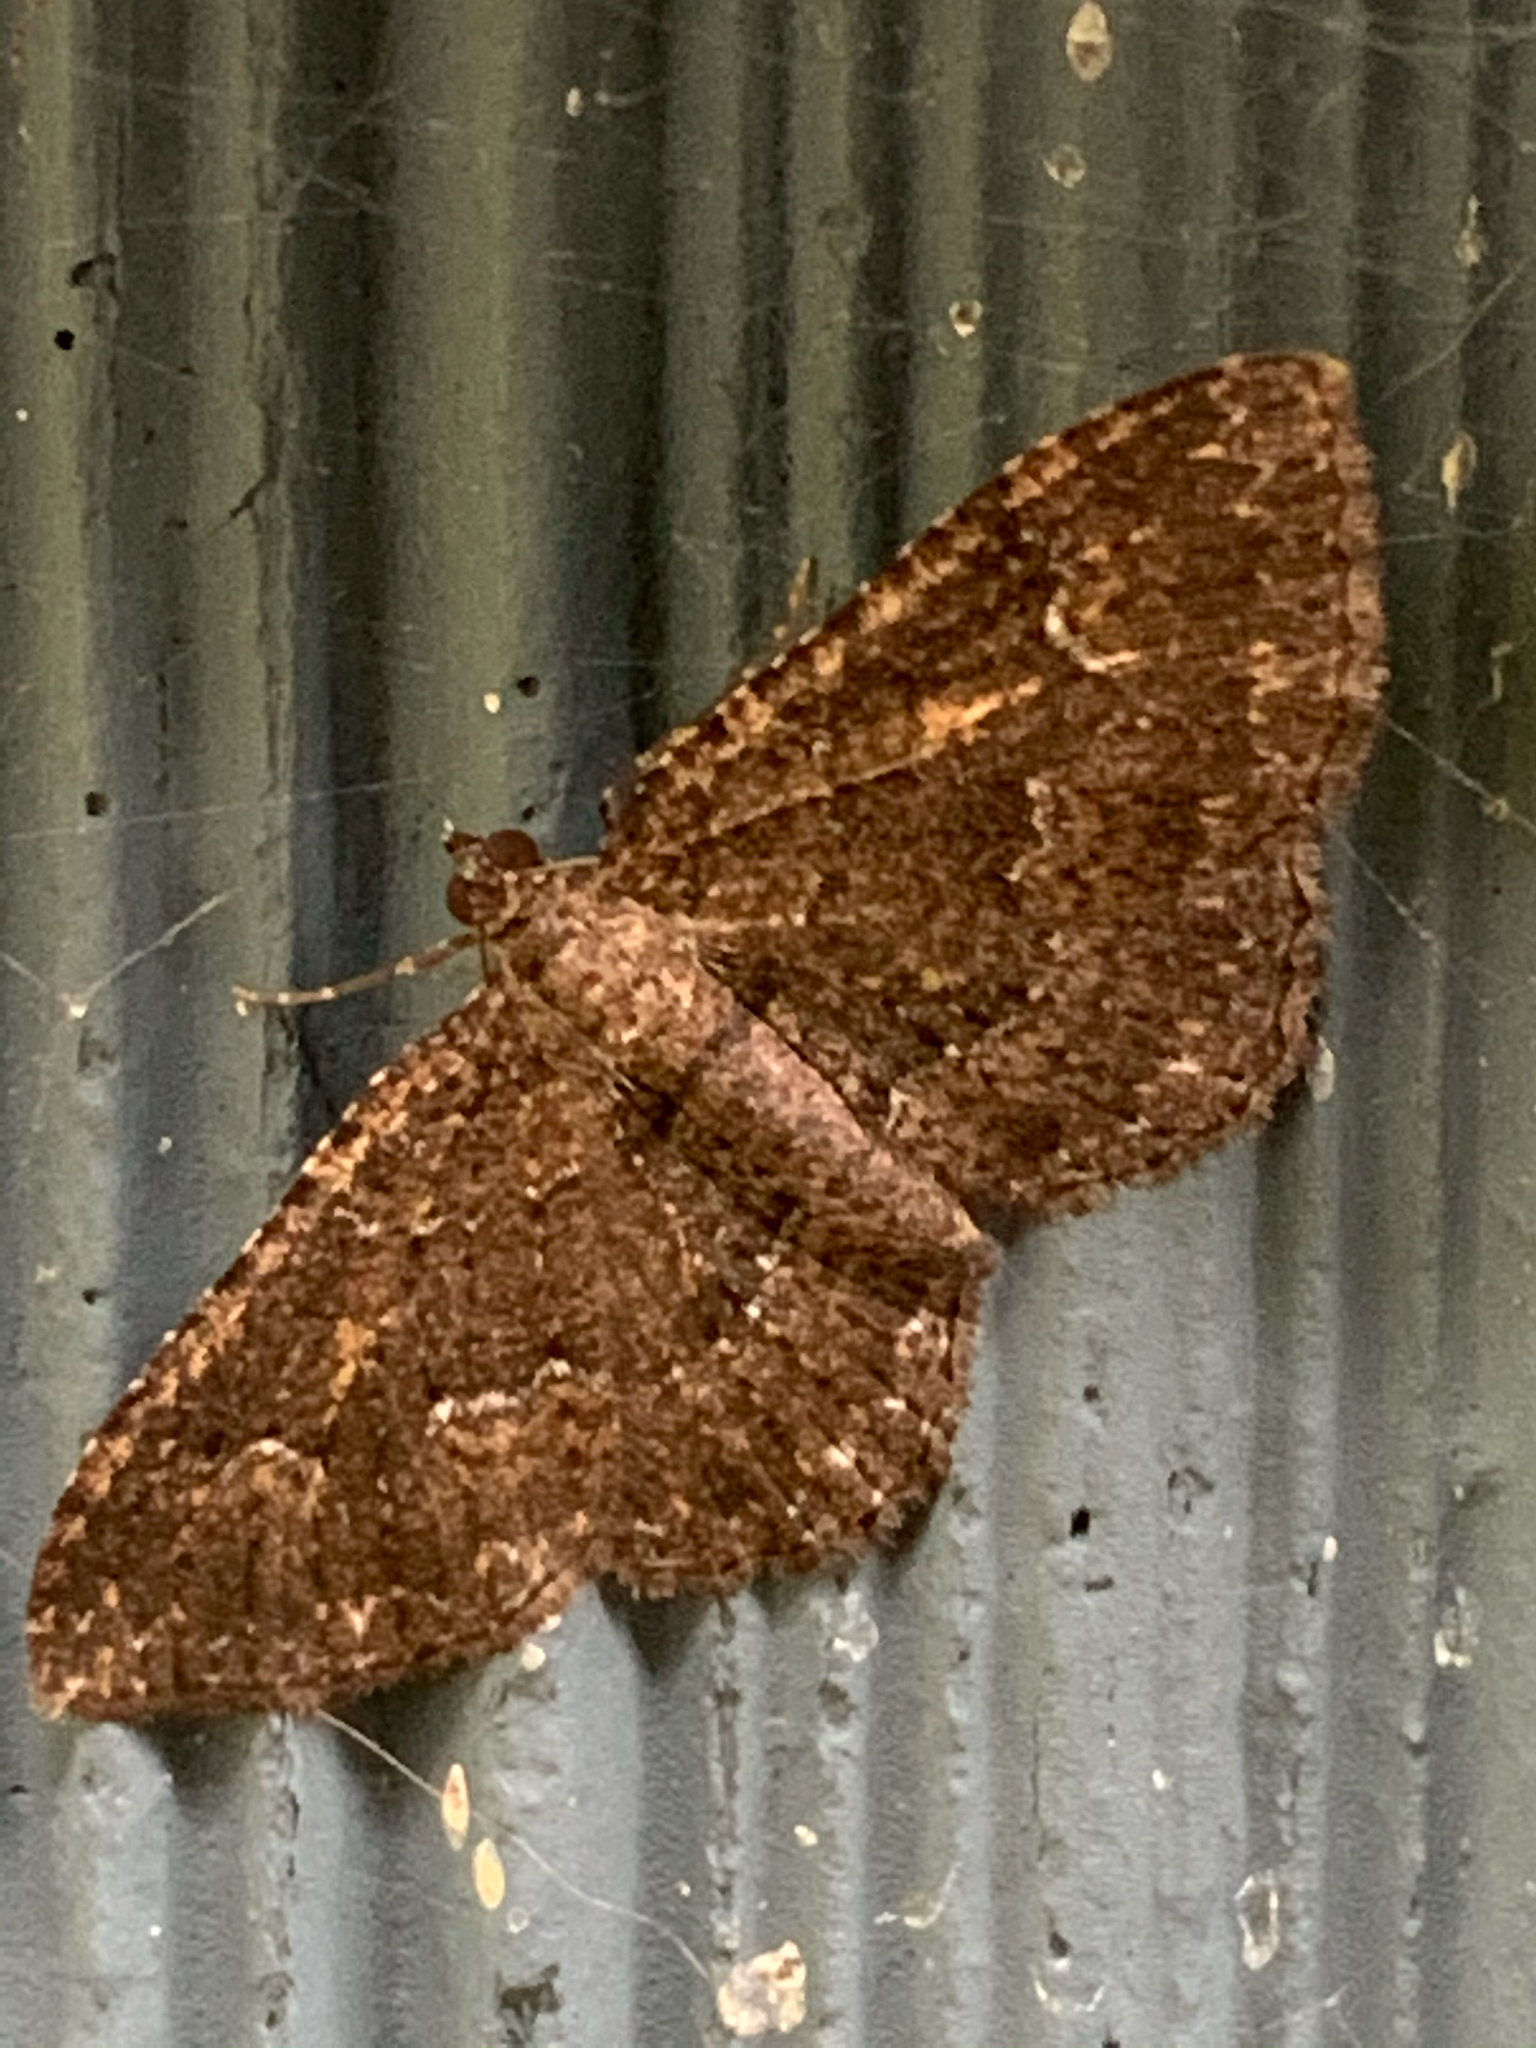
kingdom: Animalia
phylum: Arthropoda
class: Insecta
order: Lepidoptera
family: Geometridae
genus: Disclisioprocta
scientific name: Disclisioprocta stellata
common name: Somber carpet
